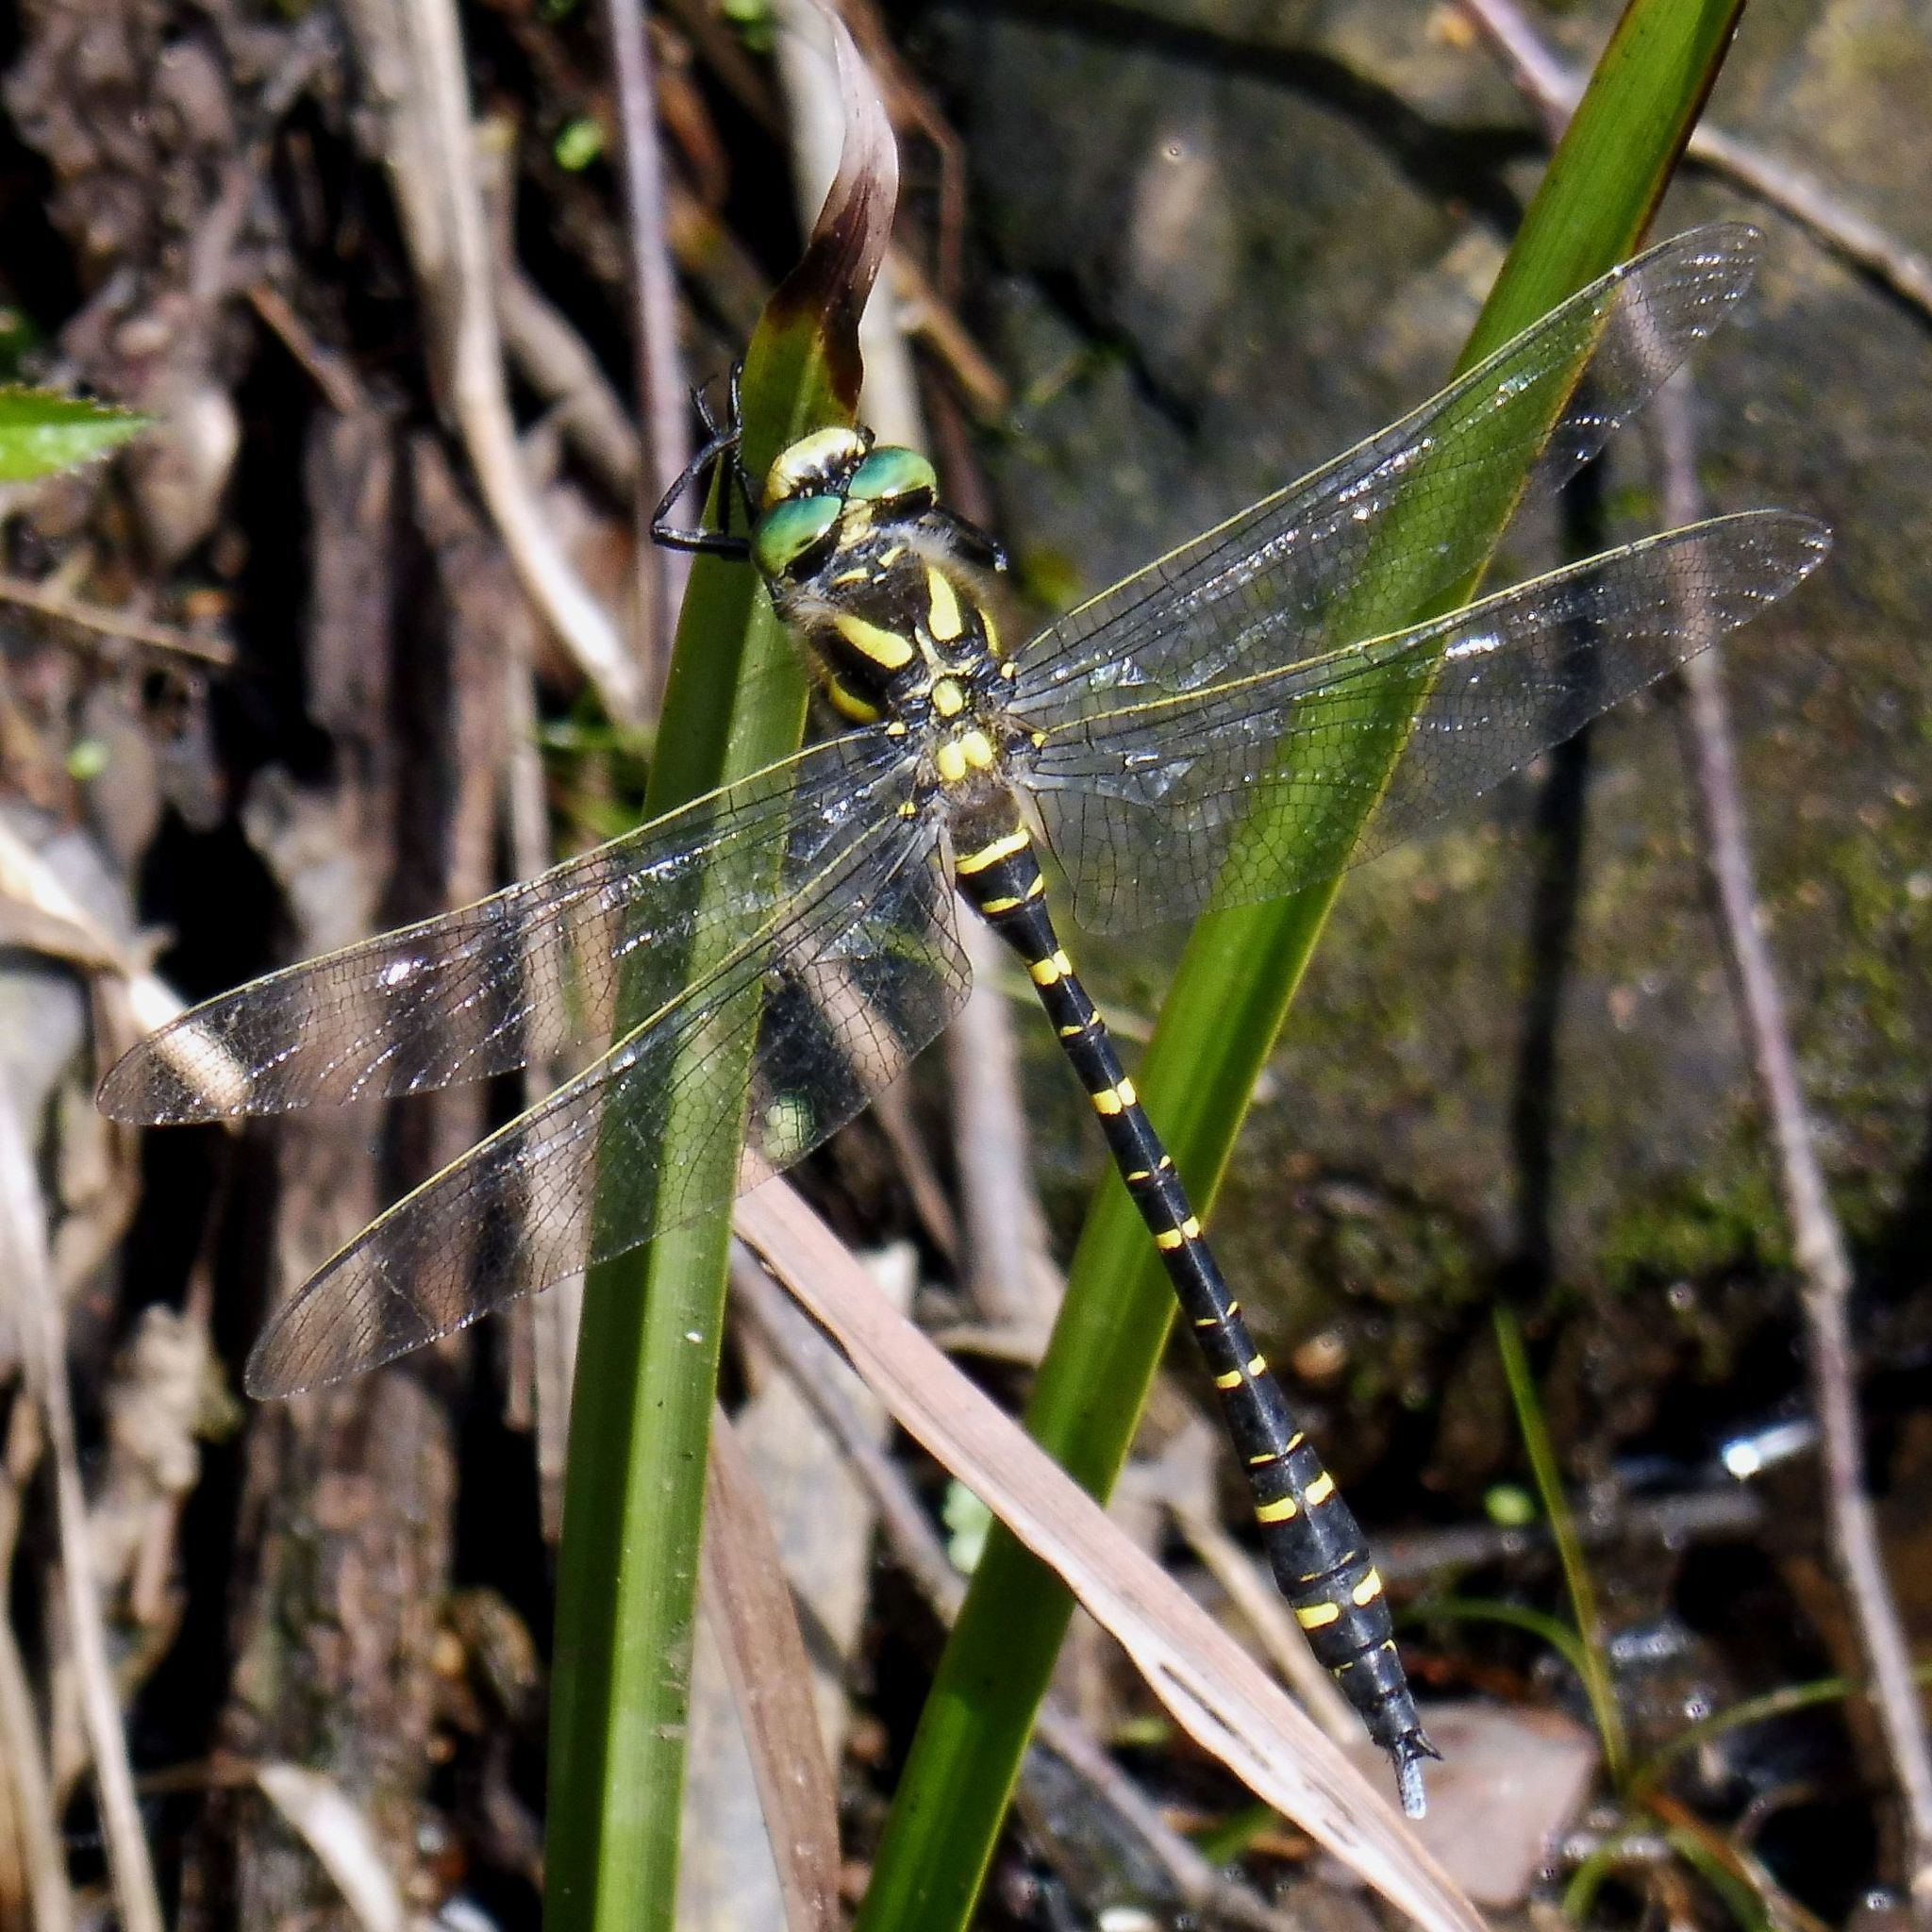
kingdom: Animalia
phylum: Arthropoda
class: Insecta
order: Odonata
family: Cordulegastridae
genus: Cordulegaster
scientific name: Cordulegaster boltonii
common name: Golden-ringed dragonfly
